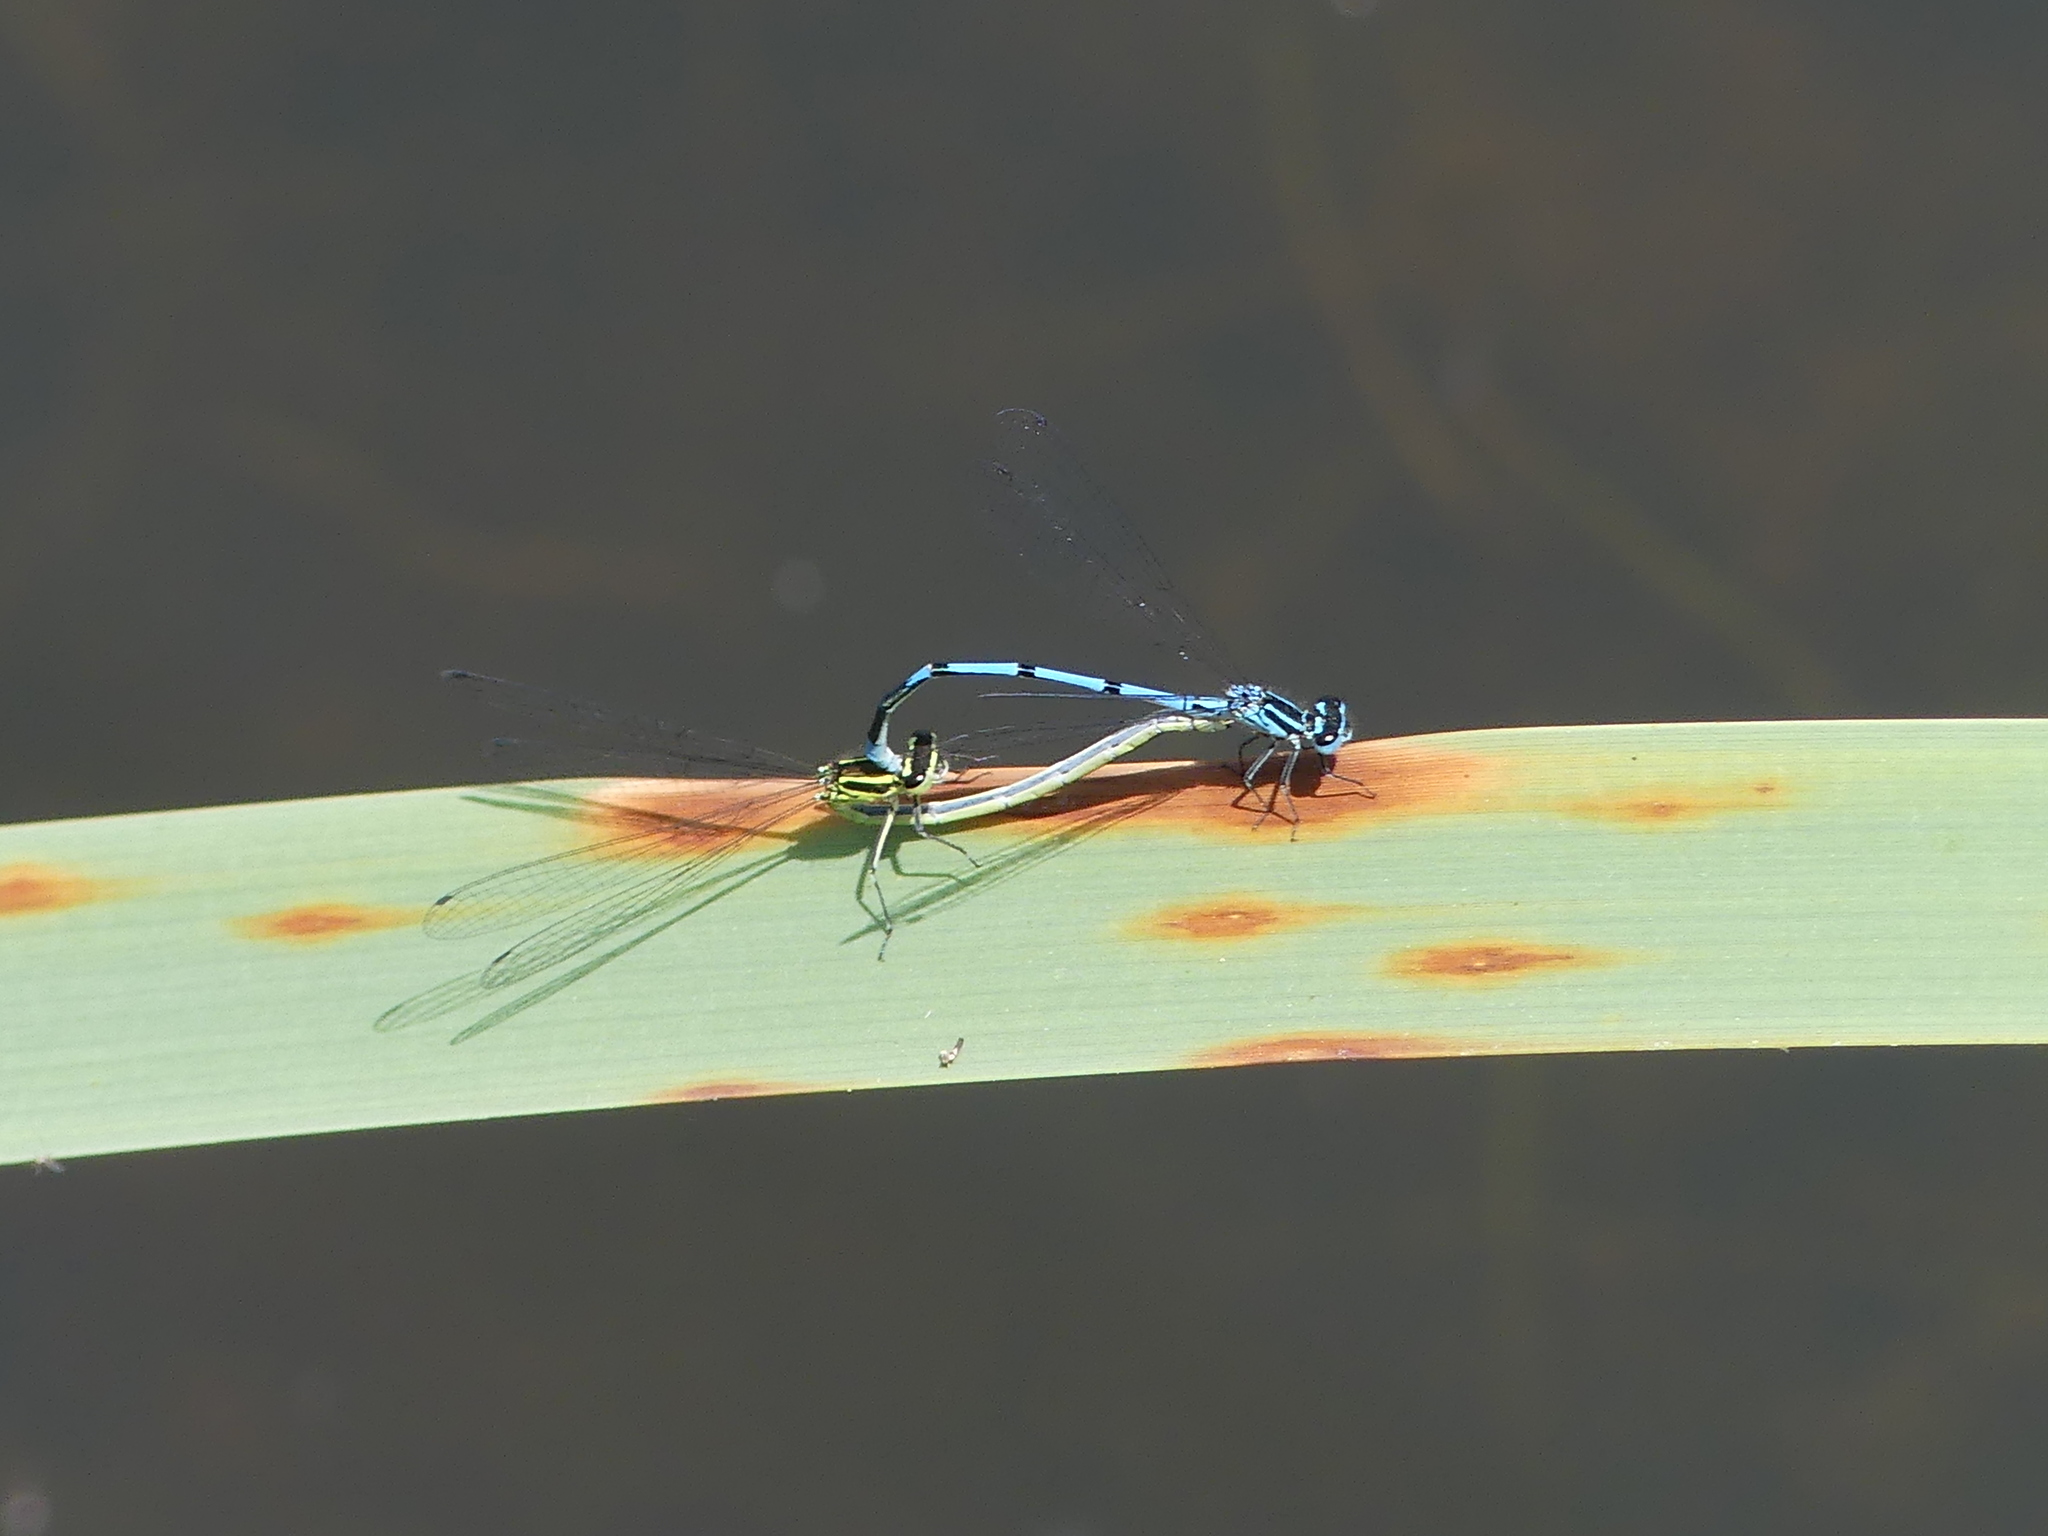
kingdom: Animalia
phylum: Arthropoda
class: Insecta
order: Odonata
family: Coenagrionidae
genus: Coenagrion
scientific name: Coenagrion puella
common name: Azure damselfly
